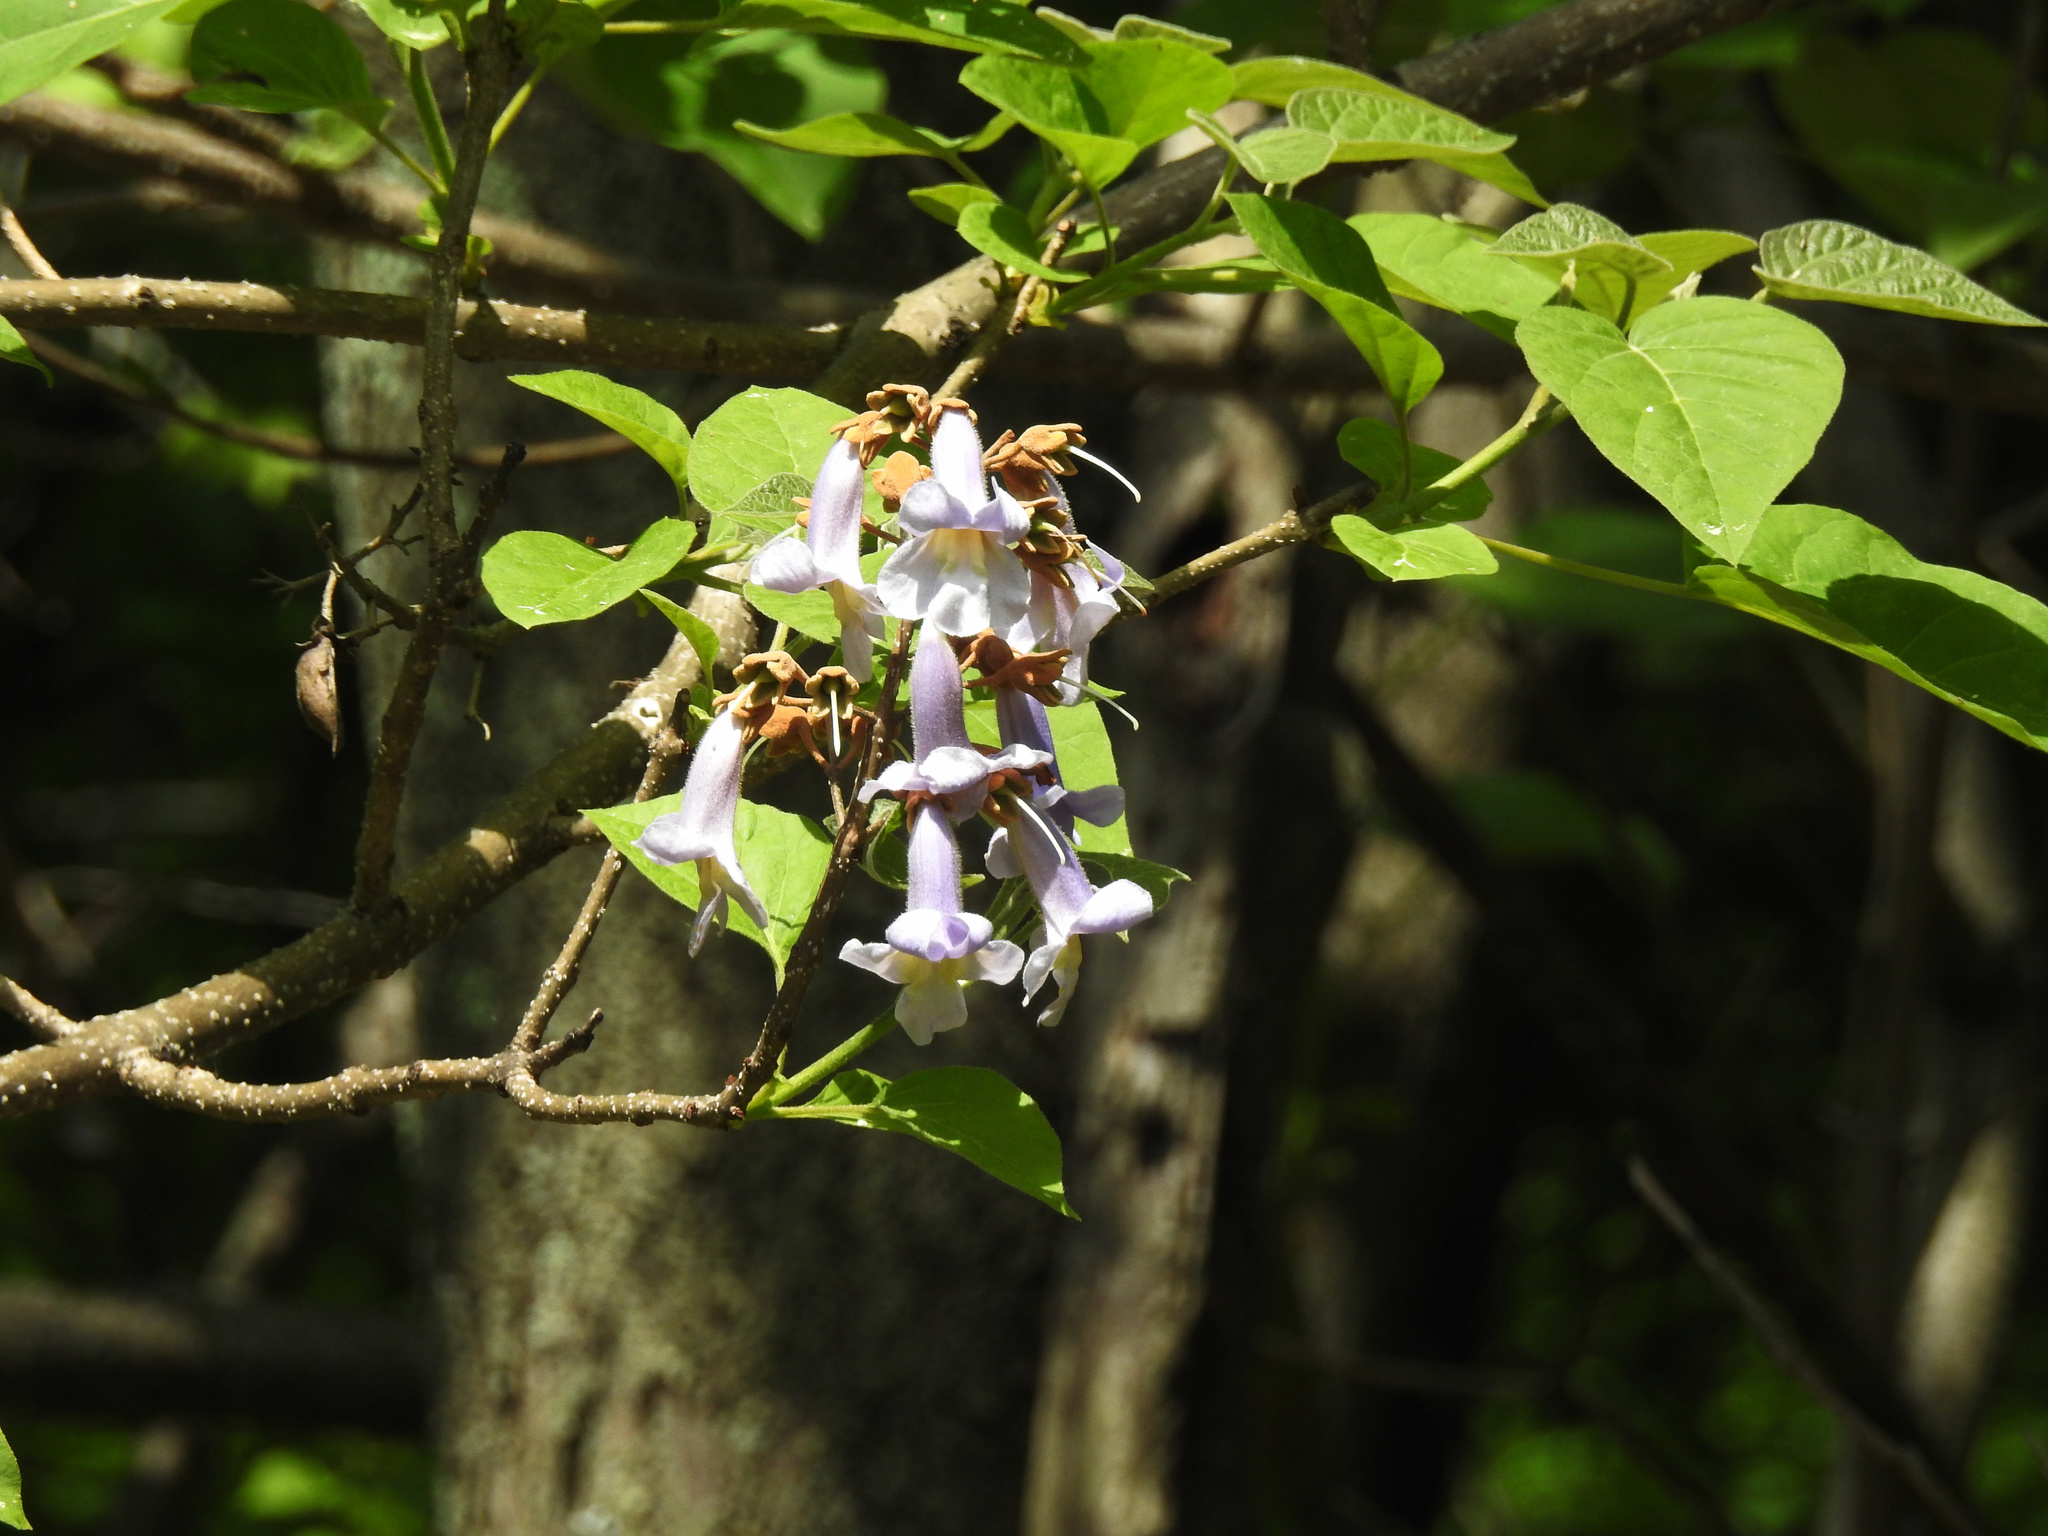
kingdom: Plantae
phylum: Tracheophyta
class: Magnoliopsida
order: Lamiales
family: Paulowniaceae
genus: Paulownia
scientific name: Paulownia tomentosa
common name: Foxglove-tree
